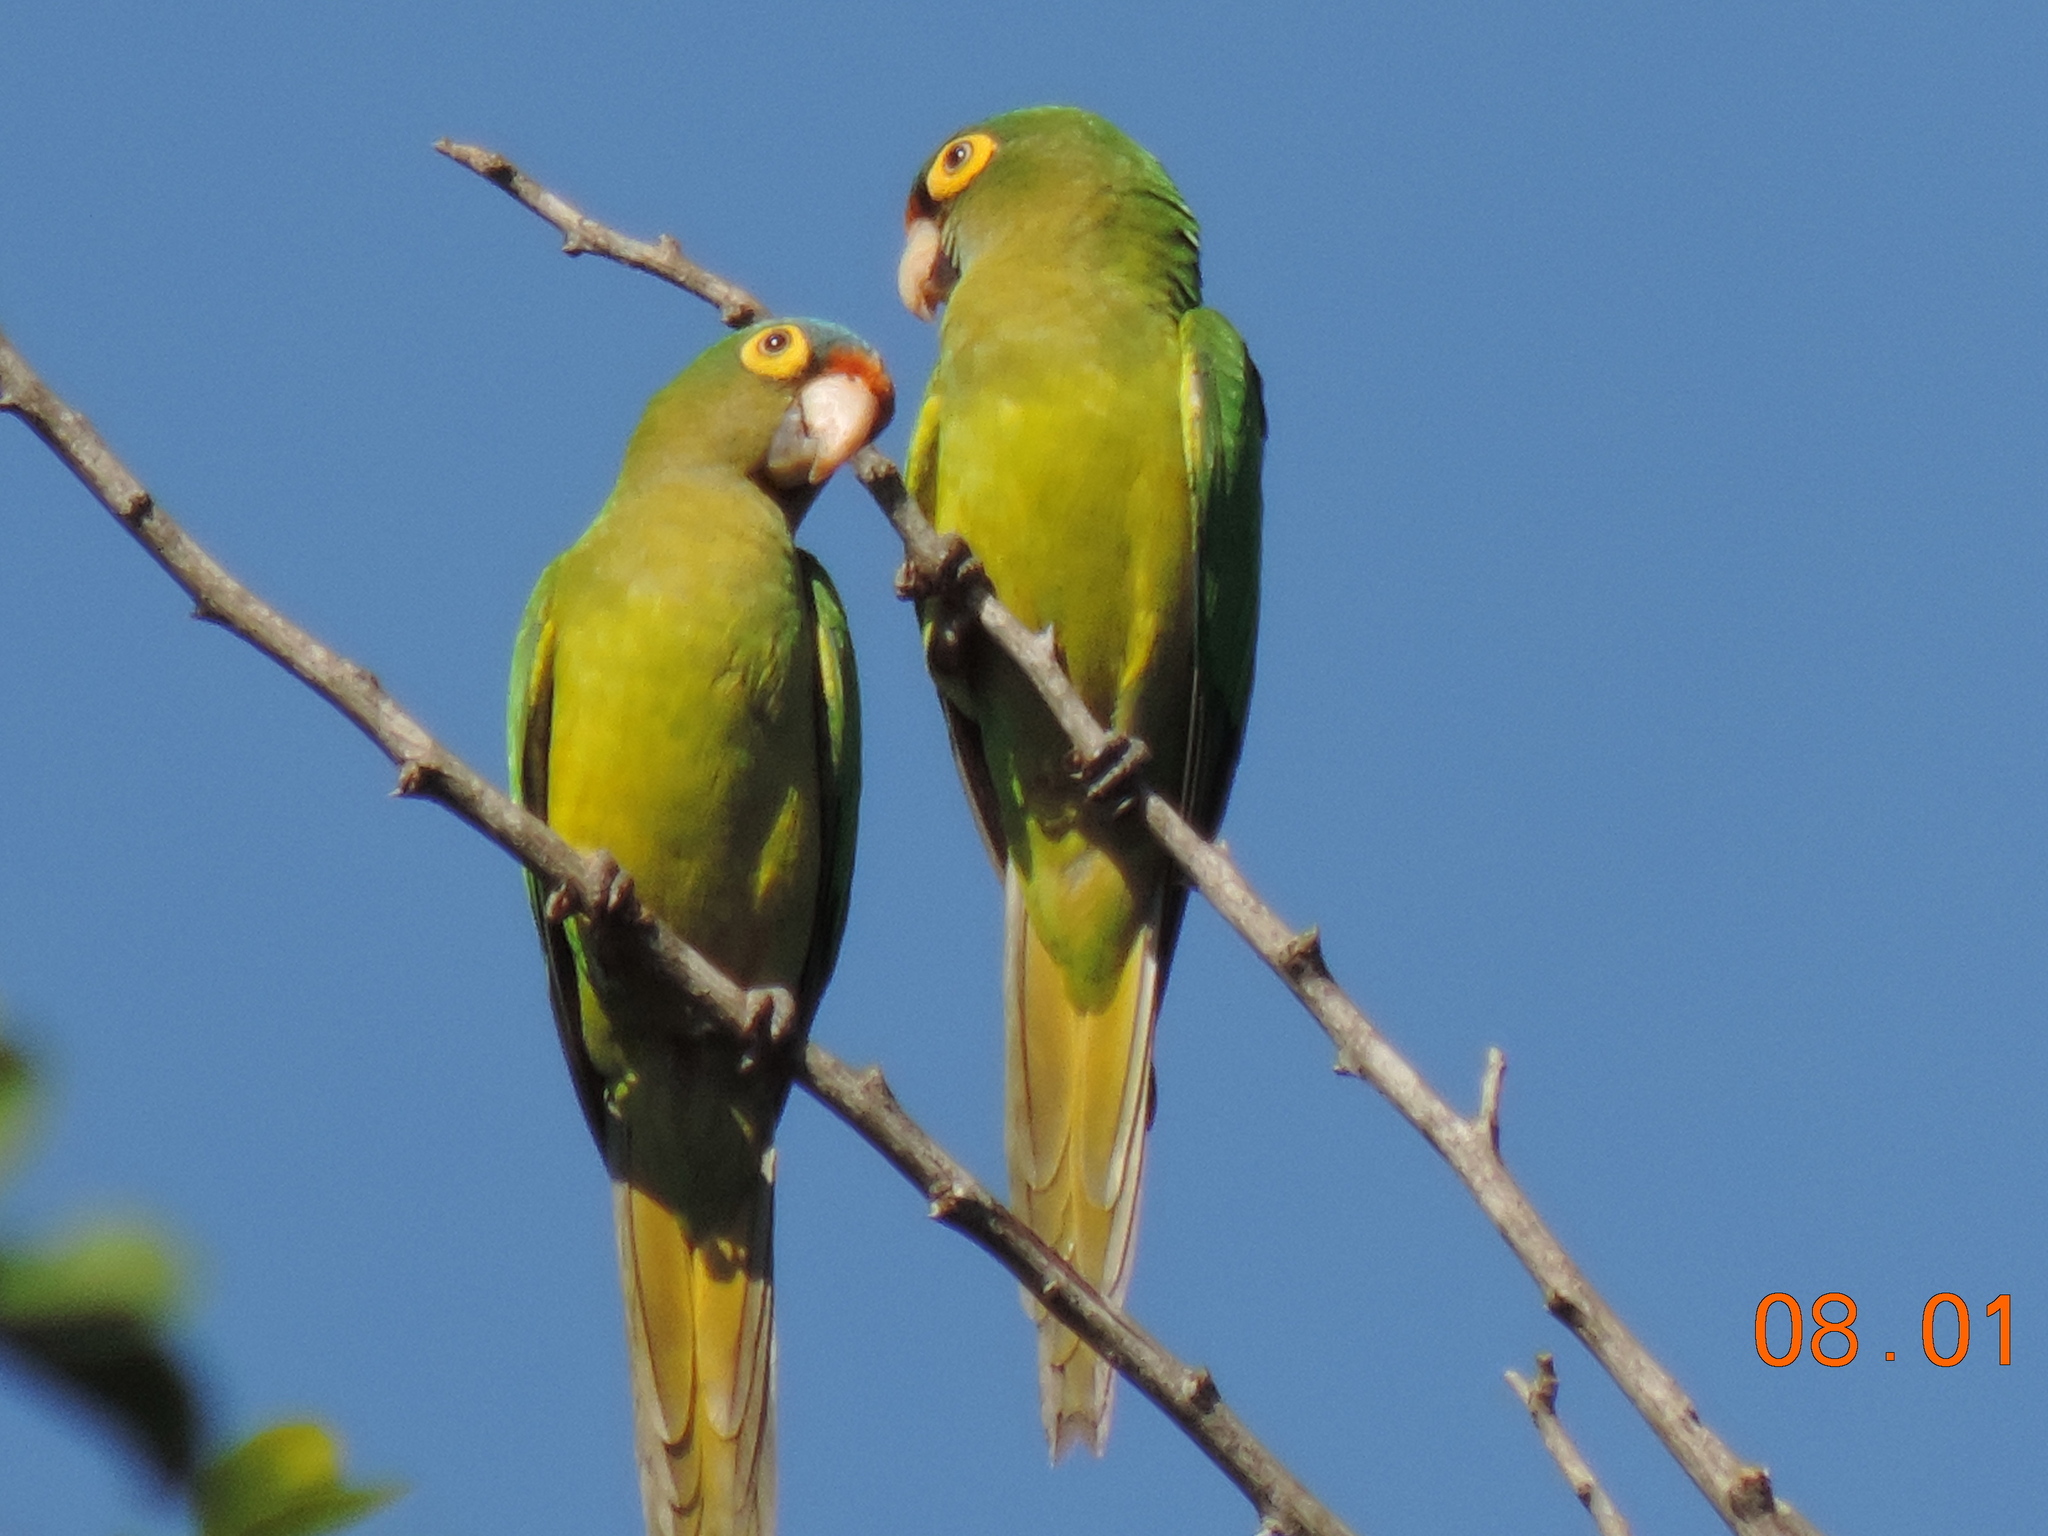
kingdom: Animalia
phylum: Chordata
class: Aves
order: Psittaciformes
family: Psittacidae
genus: Aratinga
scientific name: Aratinga canicularis
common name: Orange-fronted parakeet
